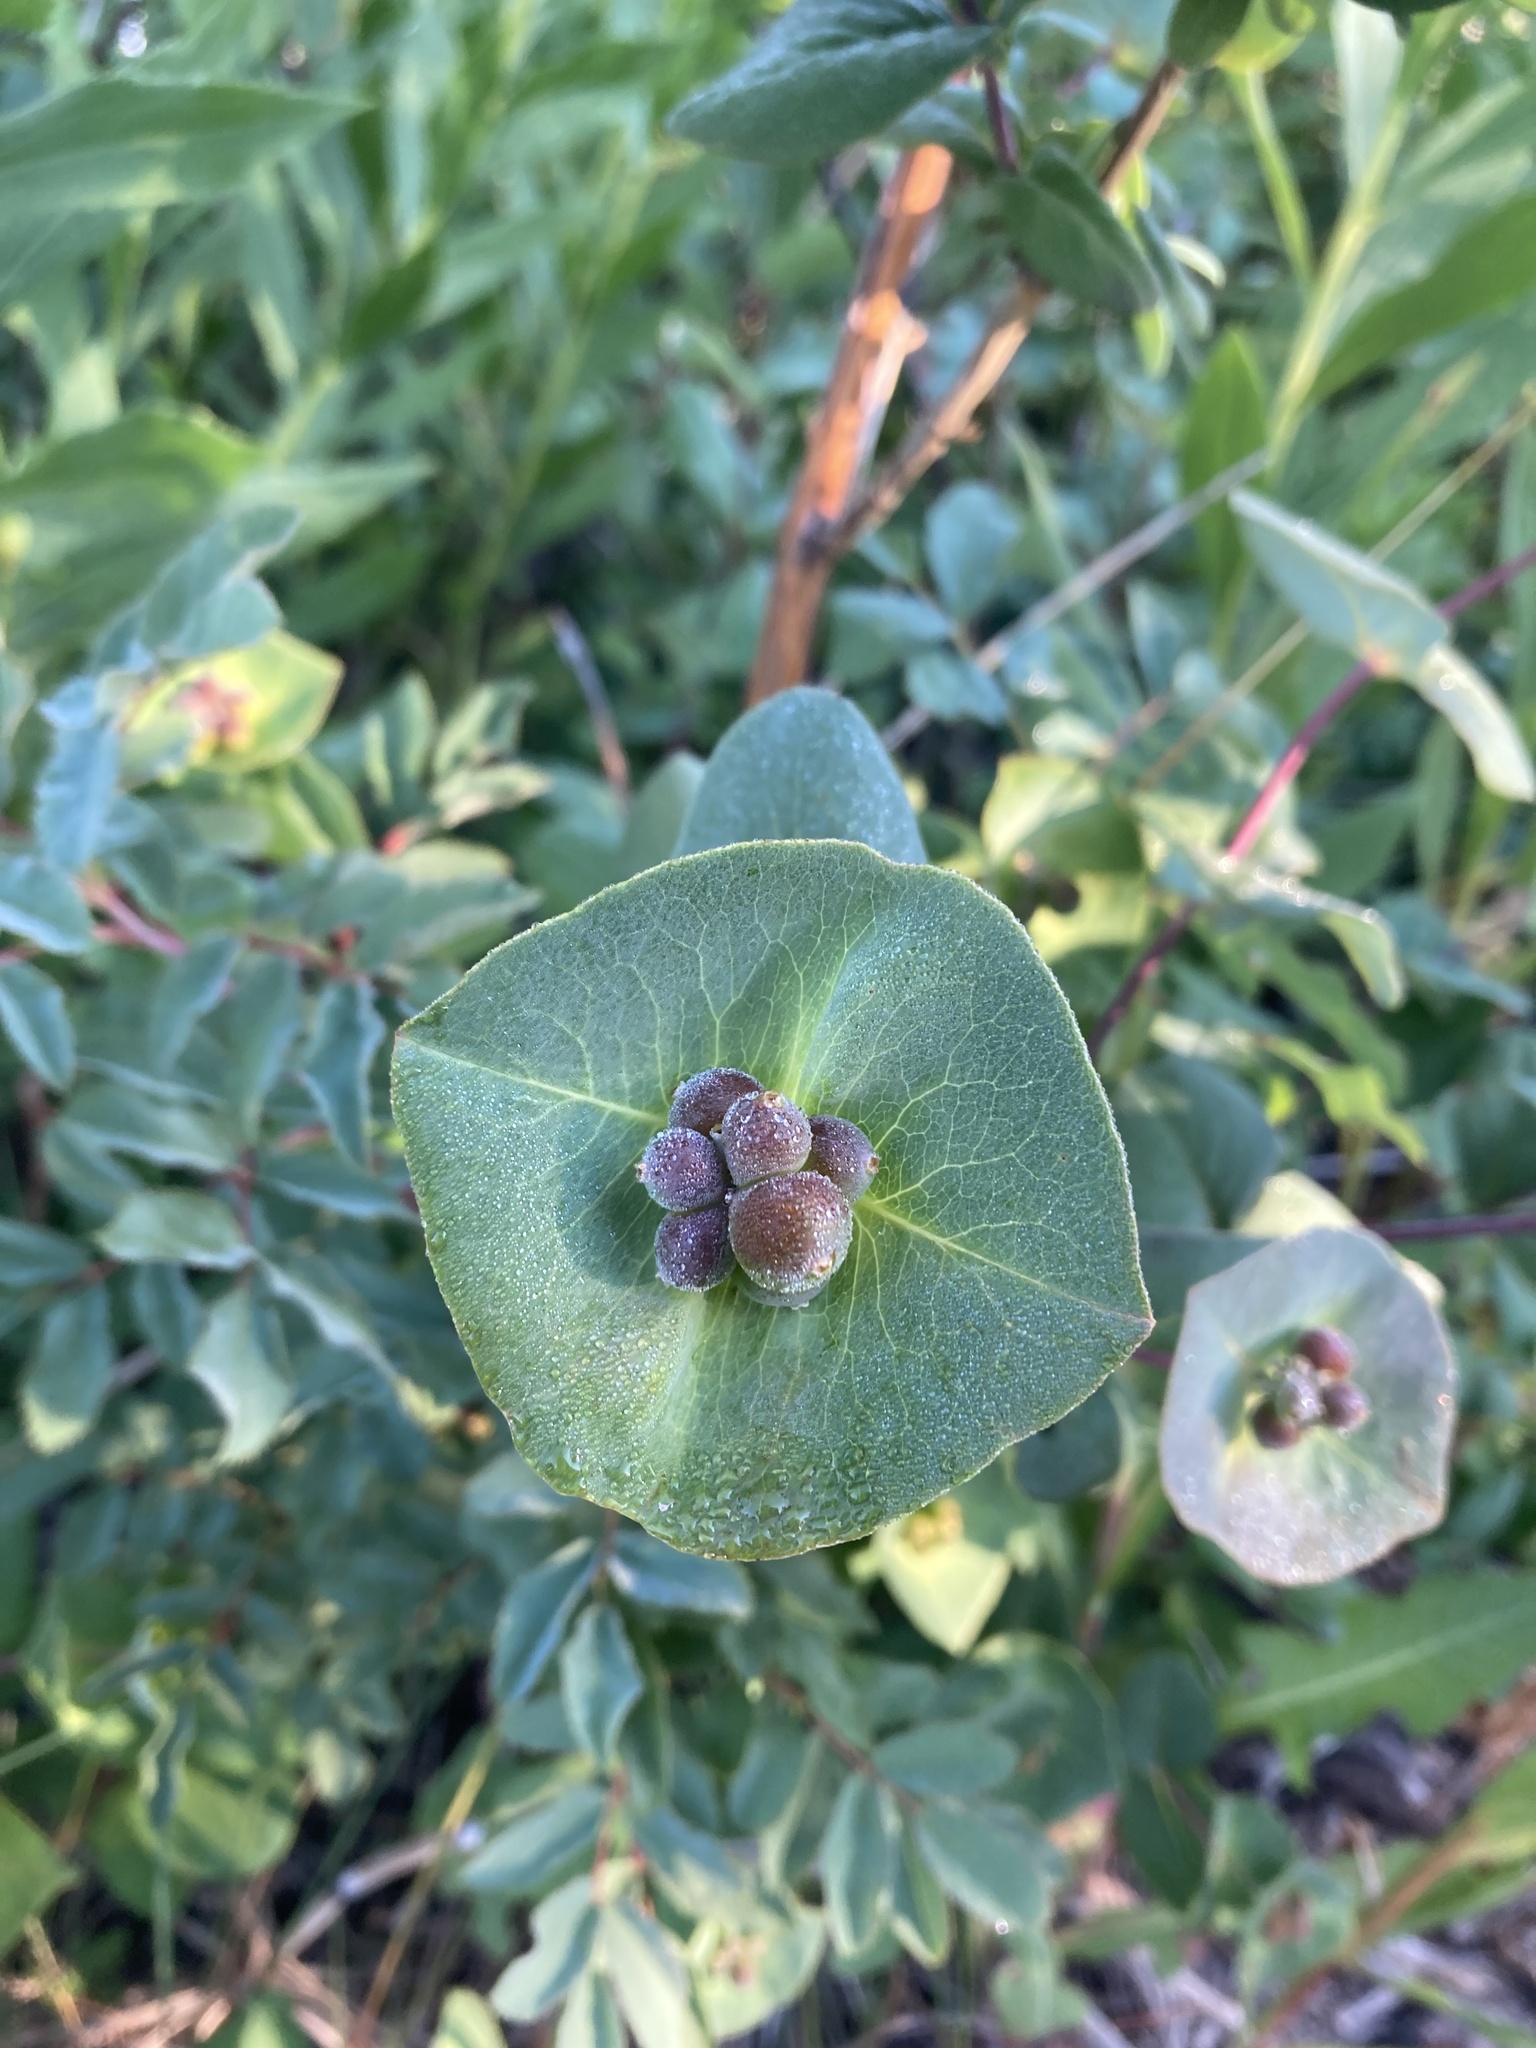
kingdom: Plantae
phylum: Tracheophyta
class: Magnoliopsida
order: Dipsacales
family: Caprifoliaceae
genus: Lonicera
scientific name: Lonicera dioica
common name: Limber honeysuckle
